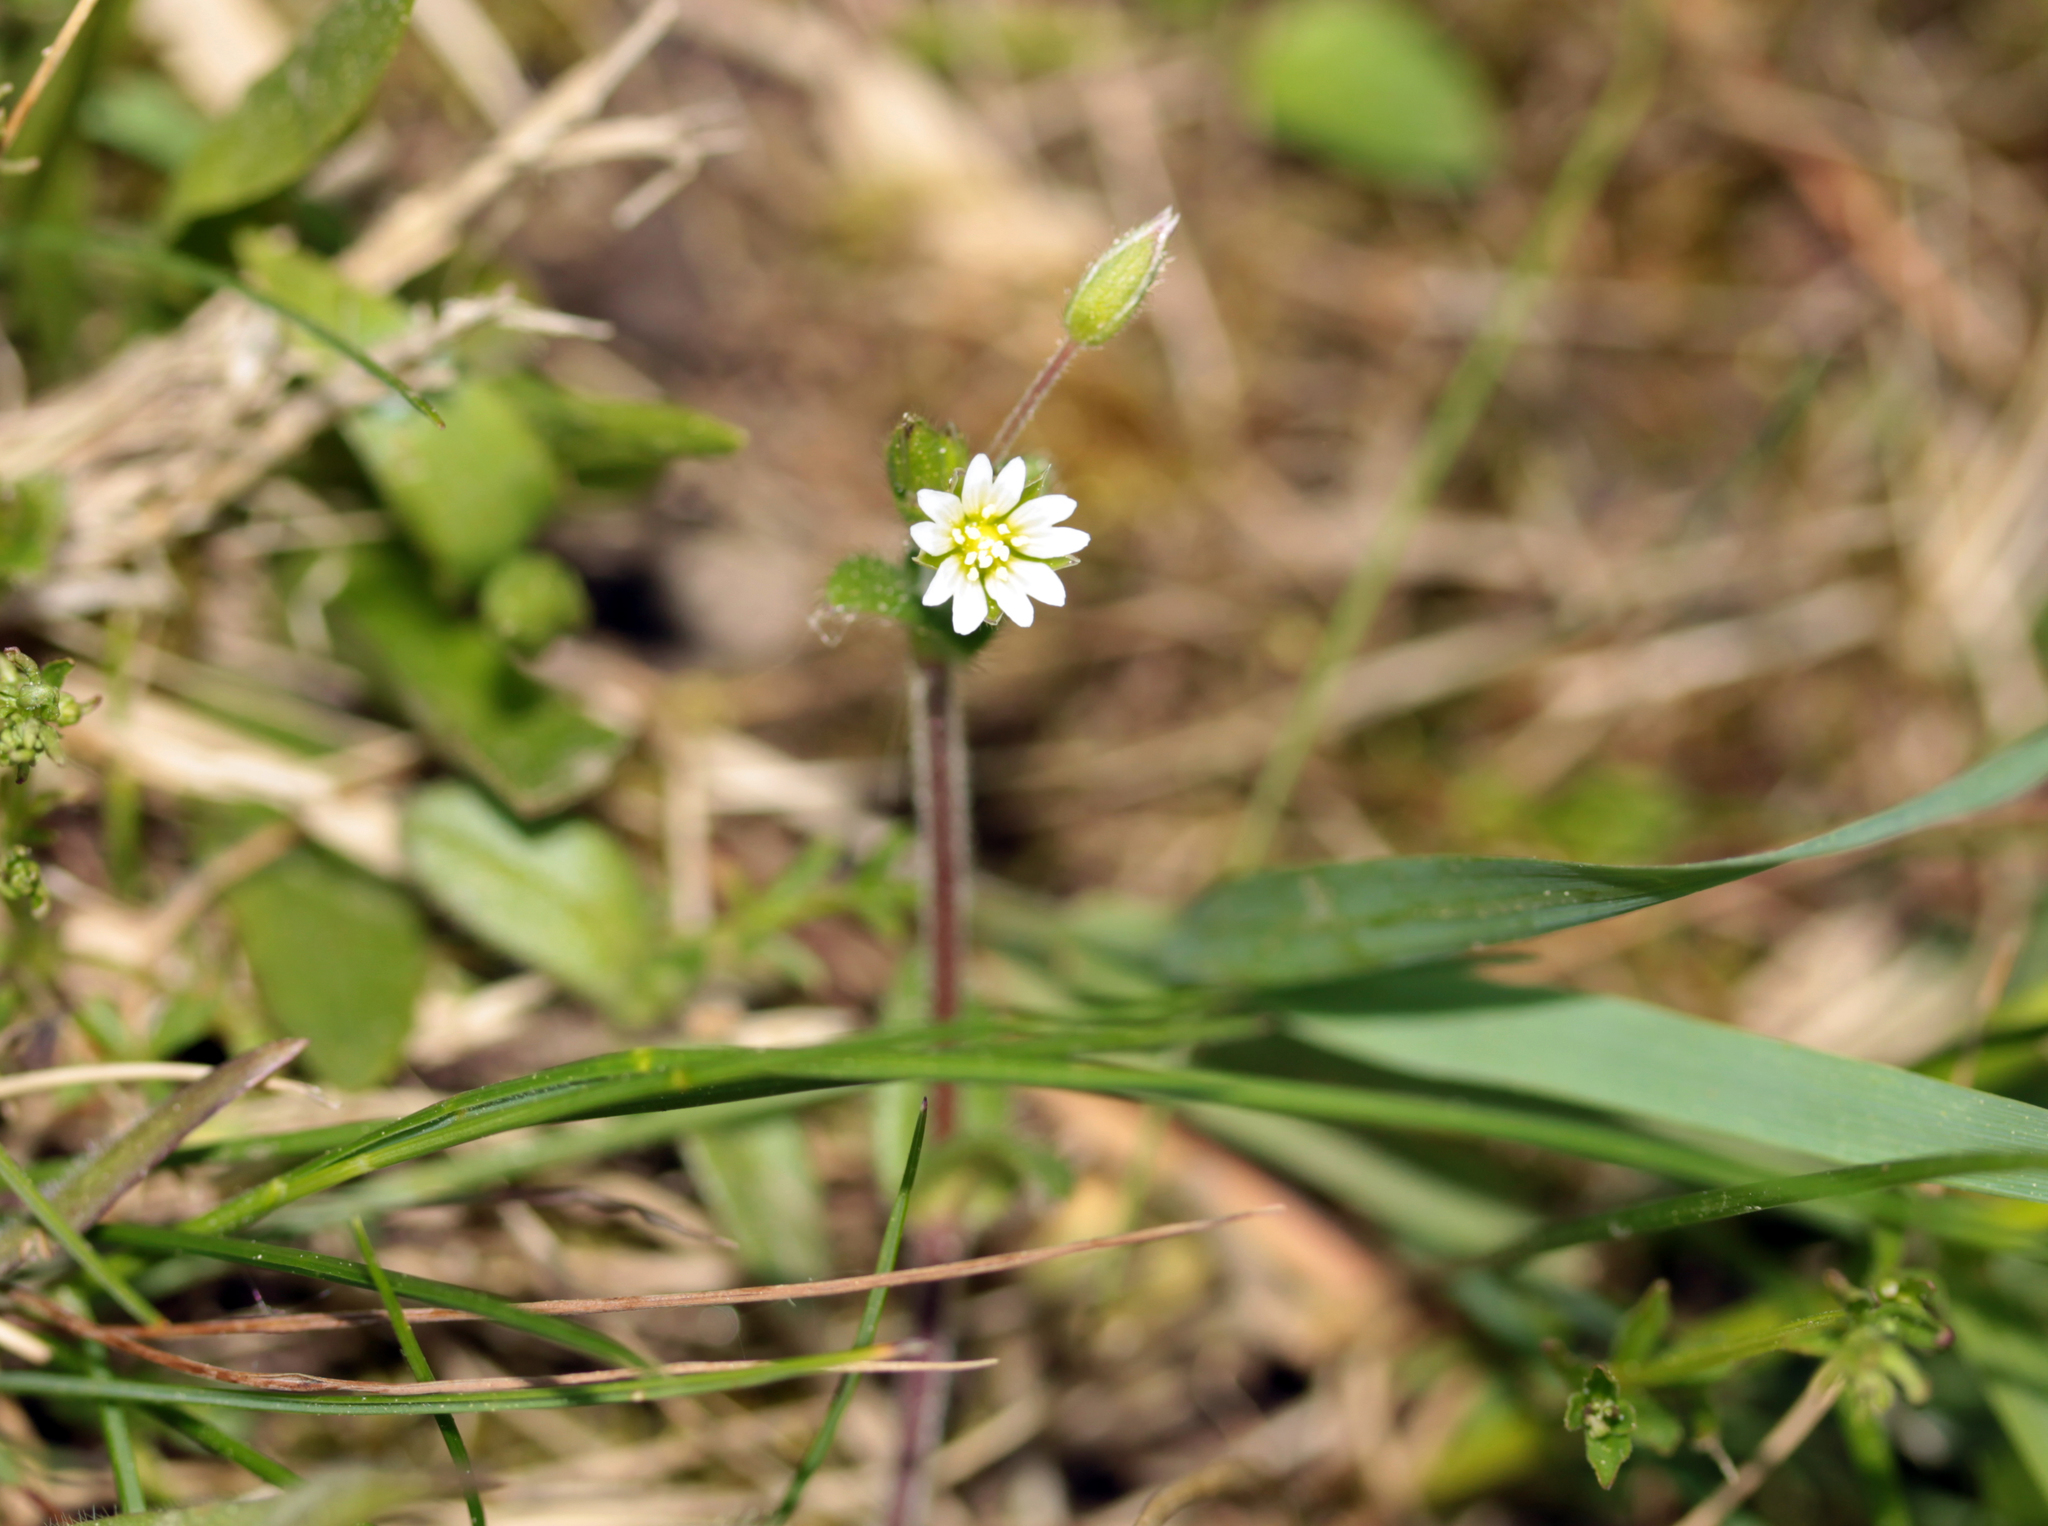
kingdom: Plantae
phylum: Tracheophyta
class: Magnoliopsida
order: Caryophyllales
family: Caryophyllaceae
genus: Cerastium
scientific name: Cerastium fontanum
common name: Common mouse-ear
